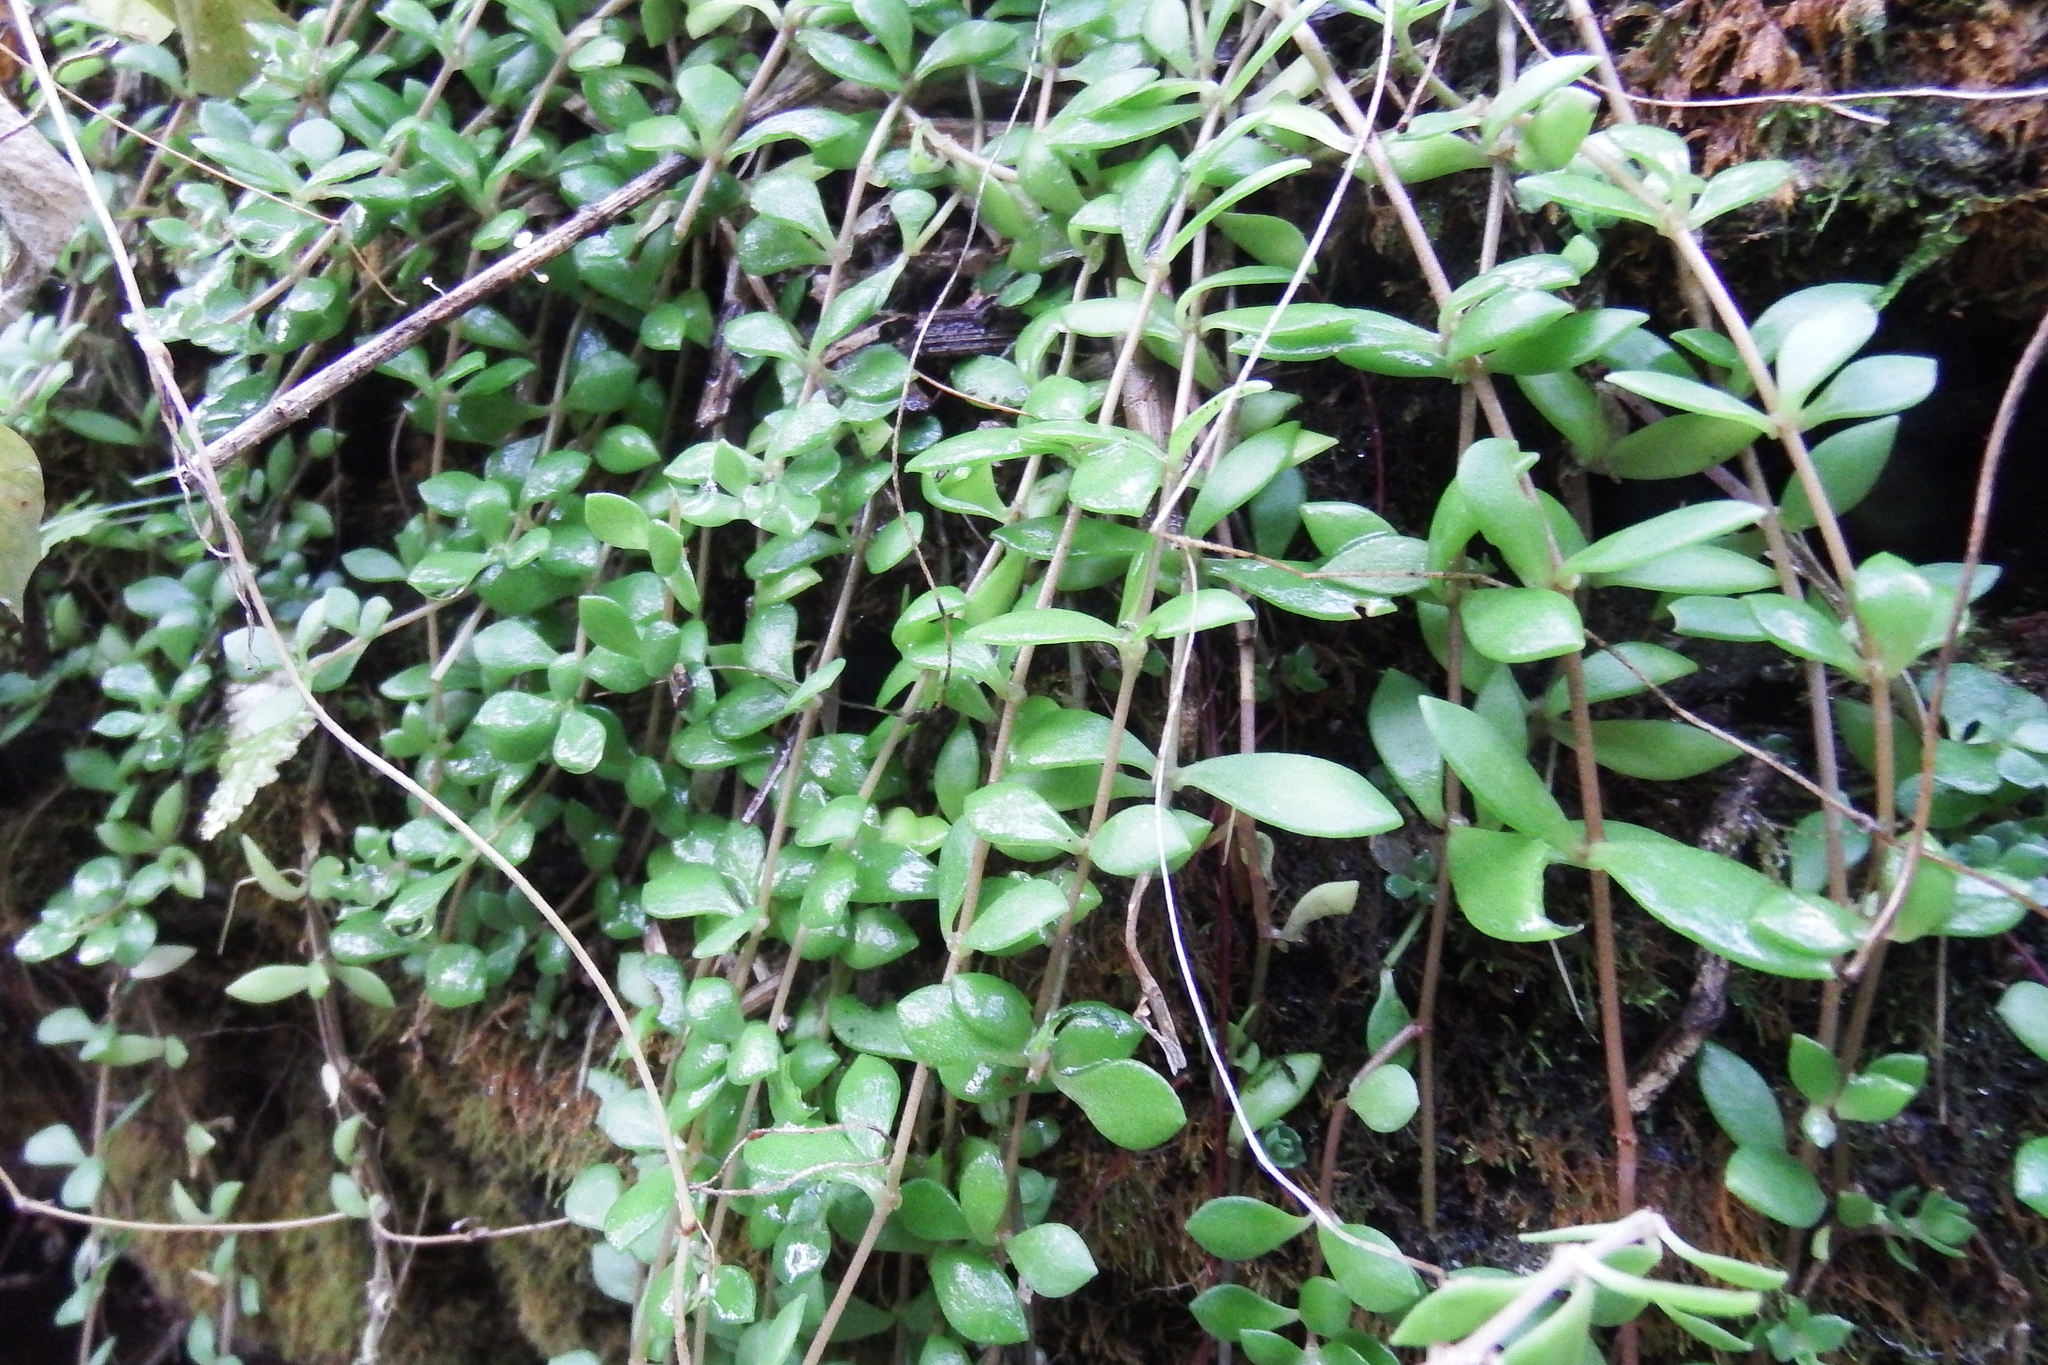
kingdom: Plantae
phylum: Tracheophyta
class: Magnoliopsida
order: Saxifragales
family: Crassulaceae
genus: Sedum
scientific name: Sedum sarmentosum
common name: Stringy stonecrop
